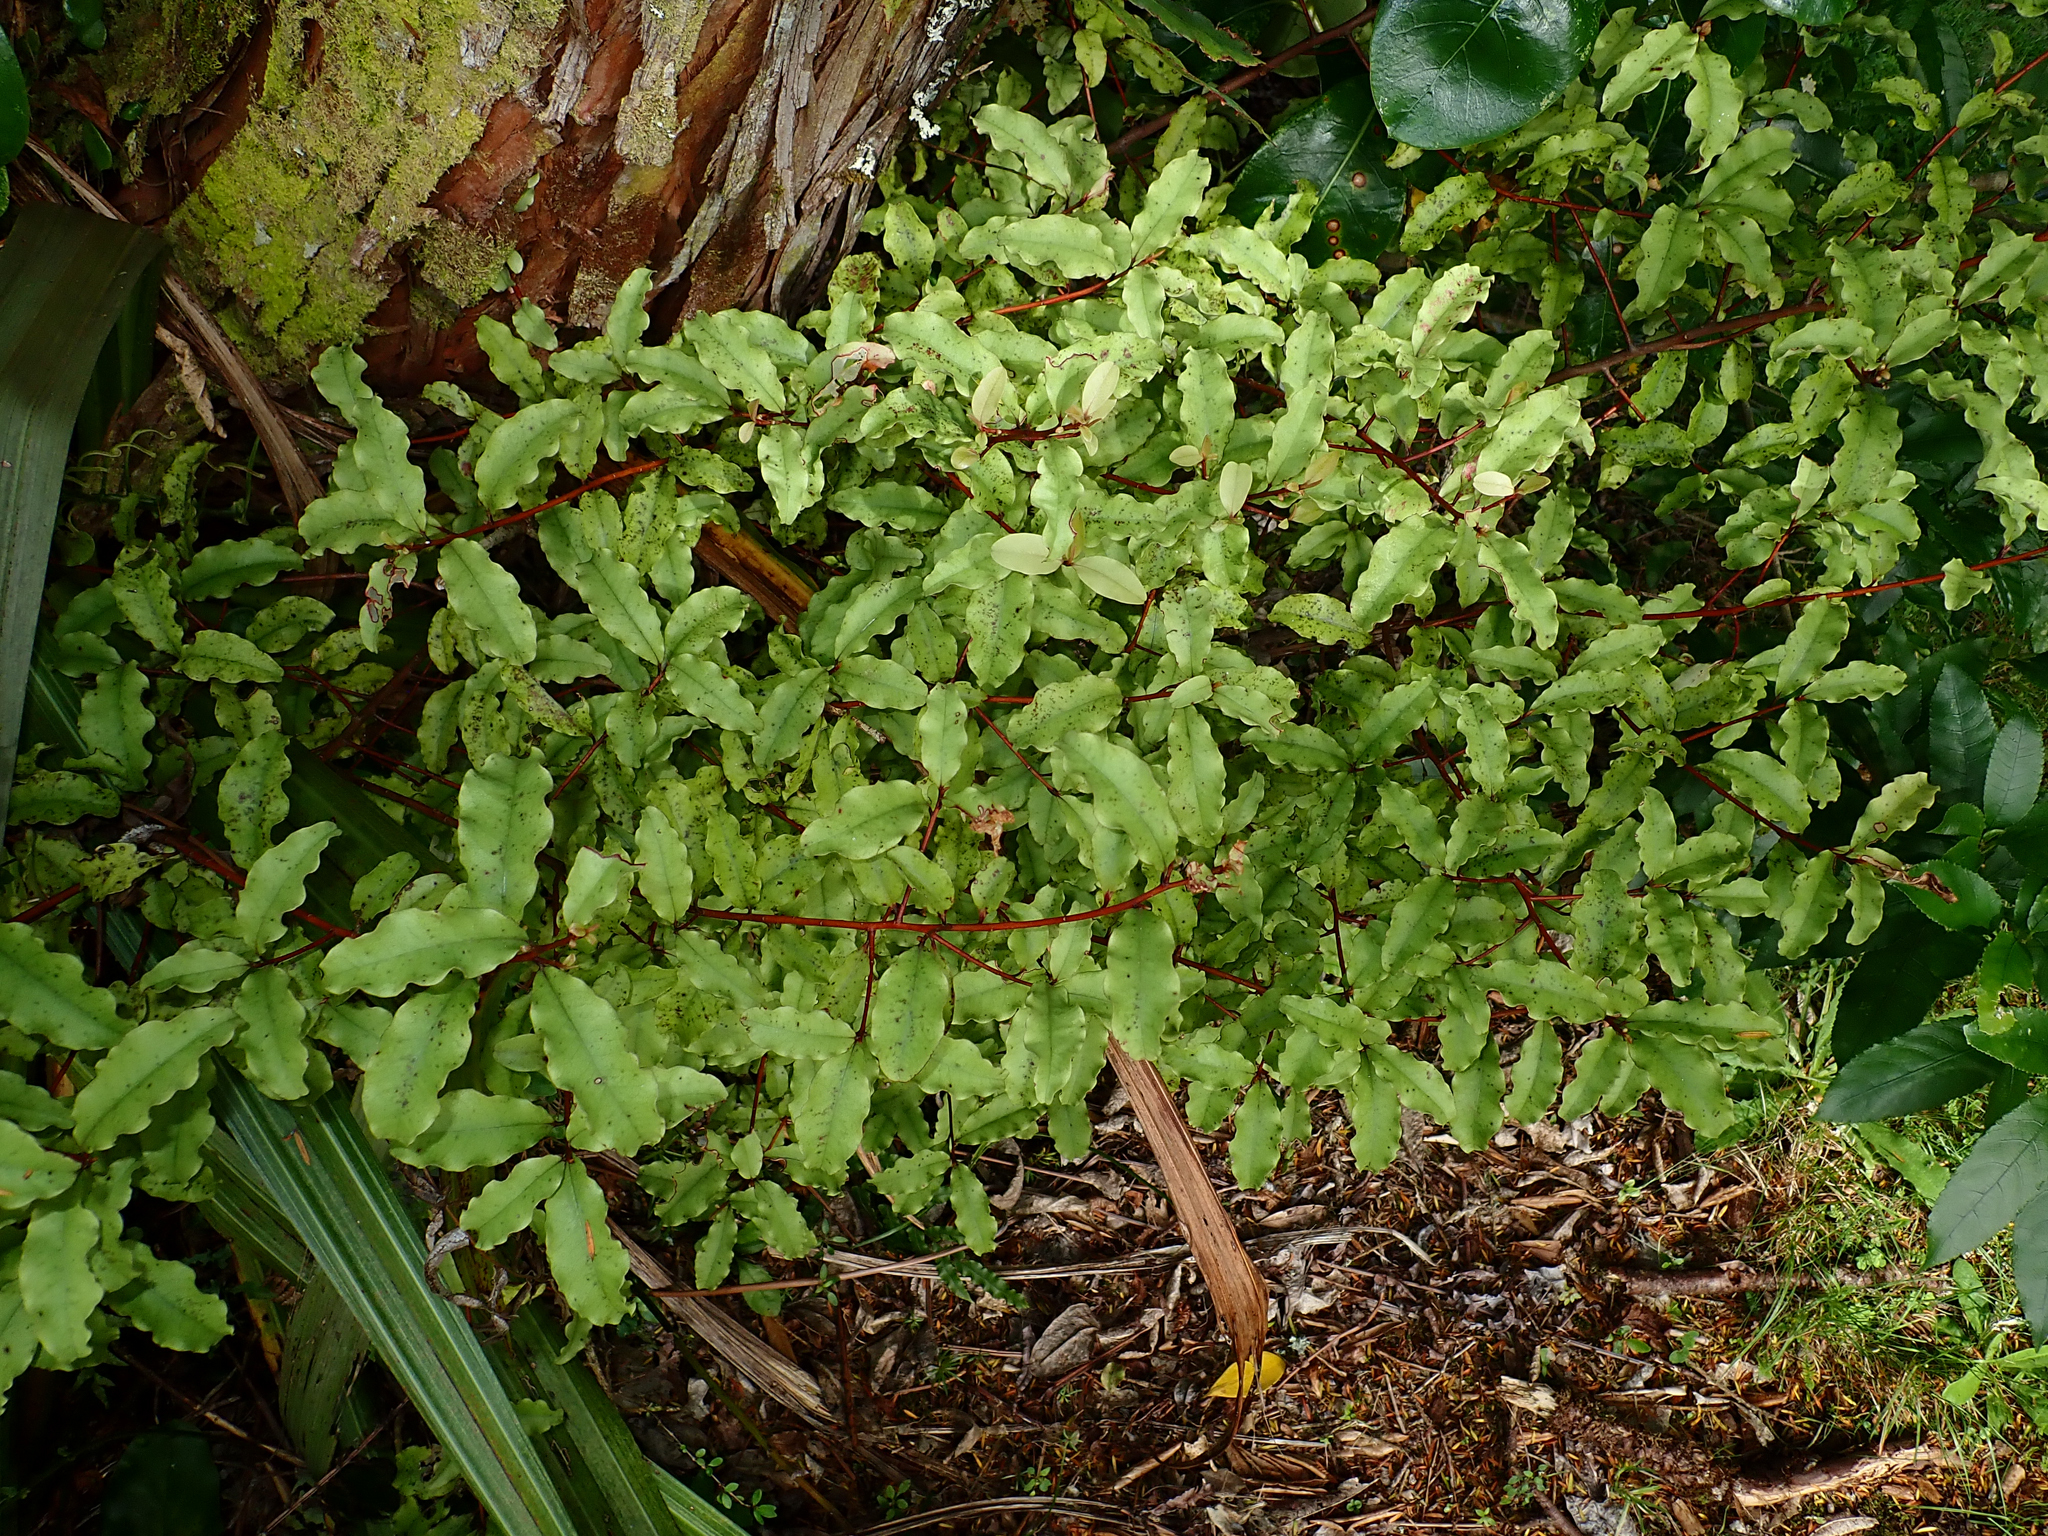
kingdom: Plantae
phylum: Tracheophyta
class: Magnoliopsida
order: Ericales
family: Primulaceae
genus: Myrsine
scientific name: Myrsine australis
